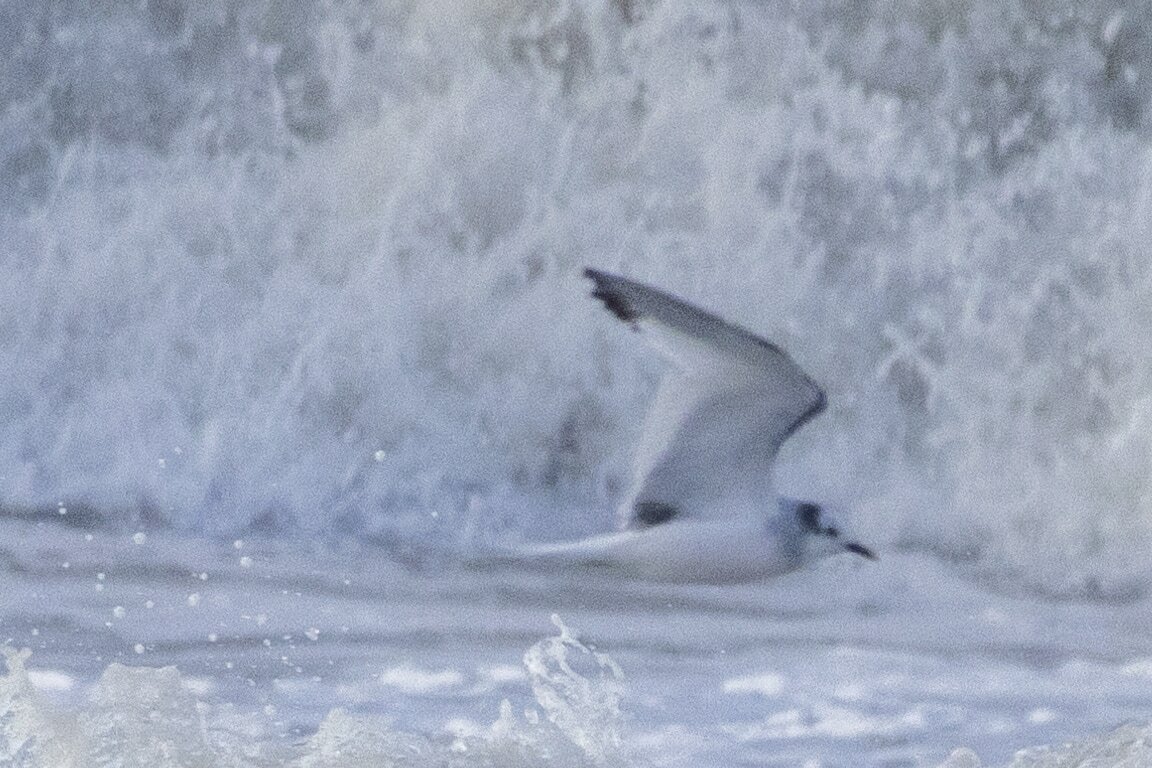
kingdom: Animalia
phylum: Chordata
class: Aves
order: Charadriiformes
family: Laridae
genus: Xema
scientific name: Xema sabini
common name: Sabine's gull
